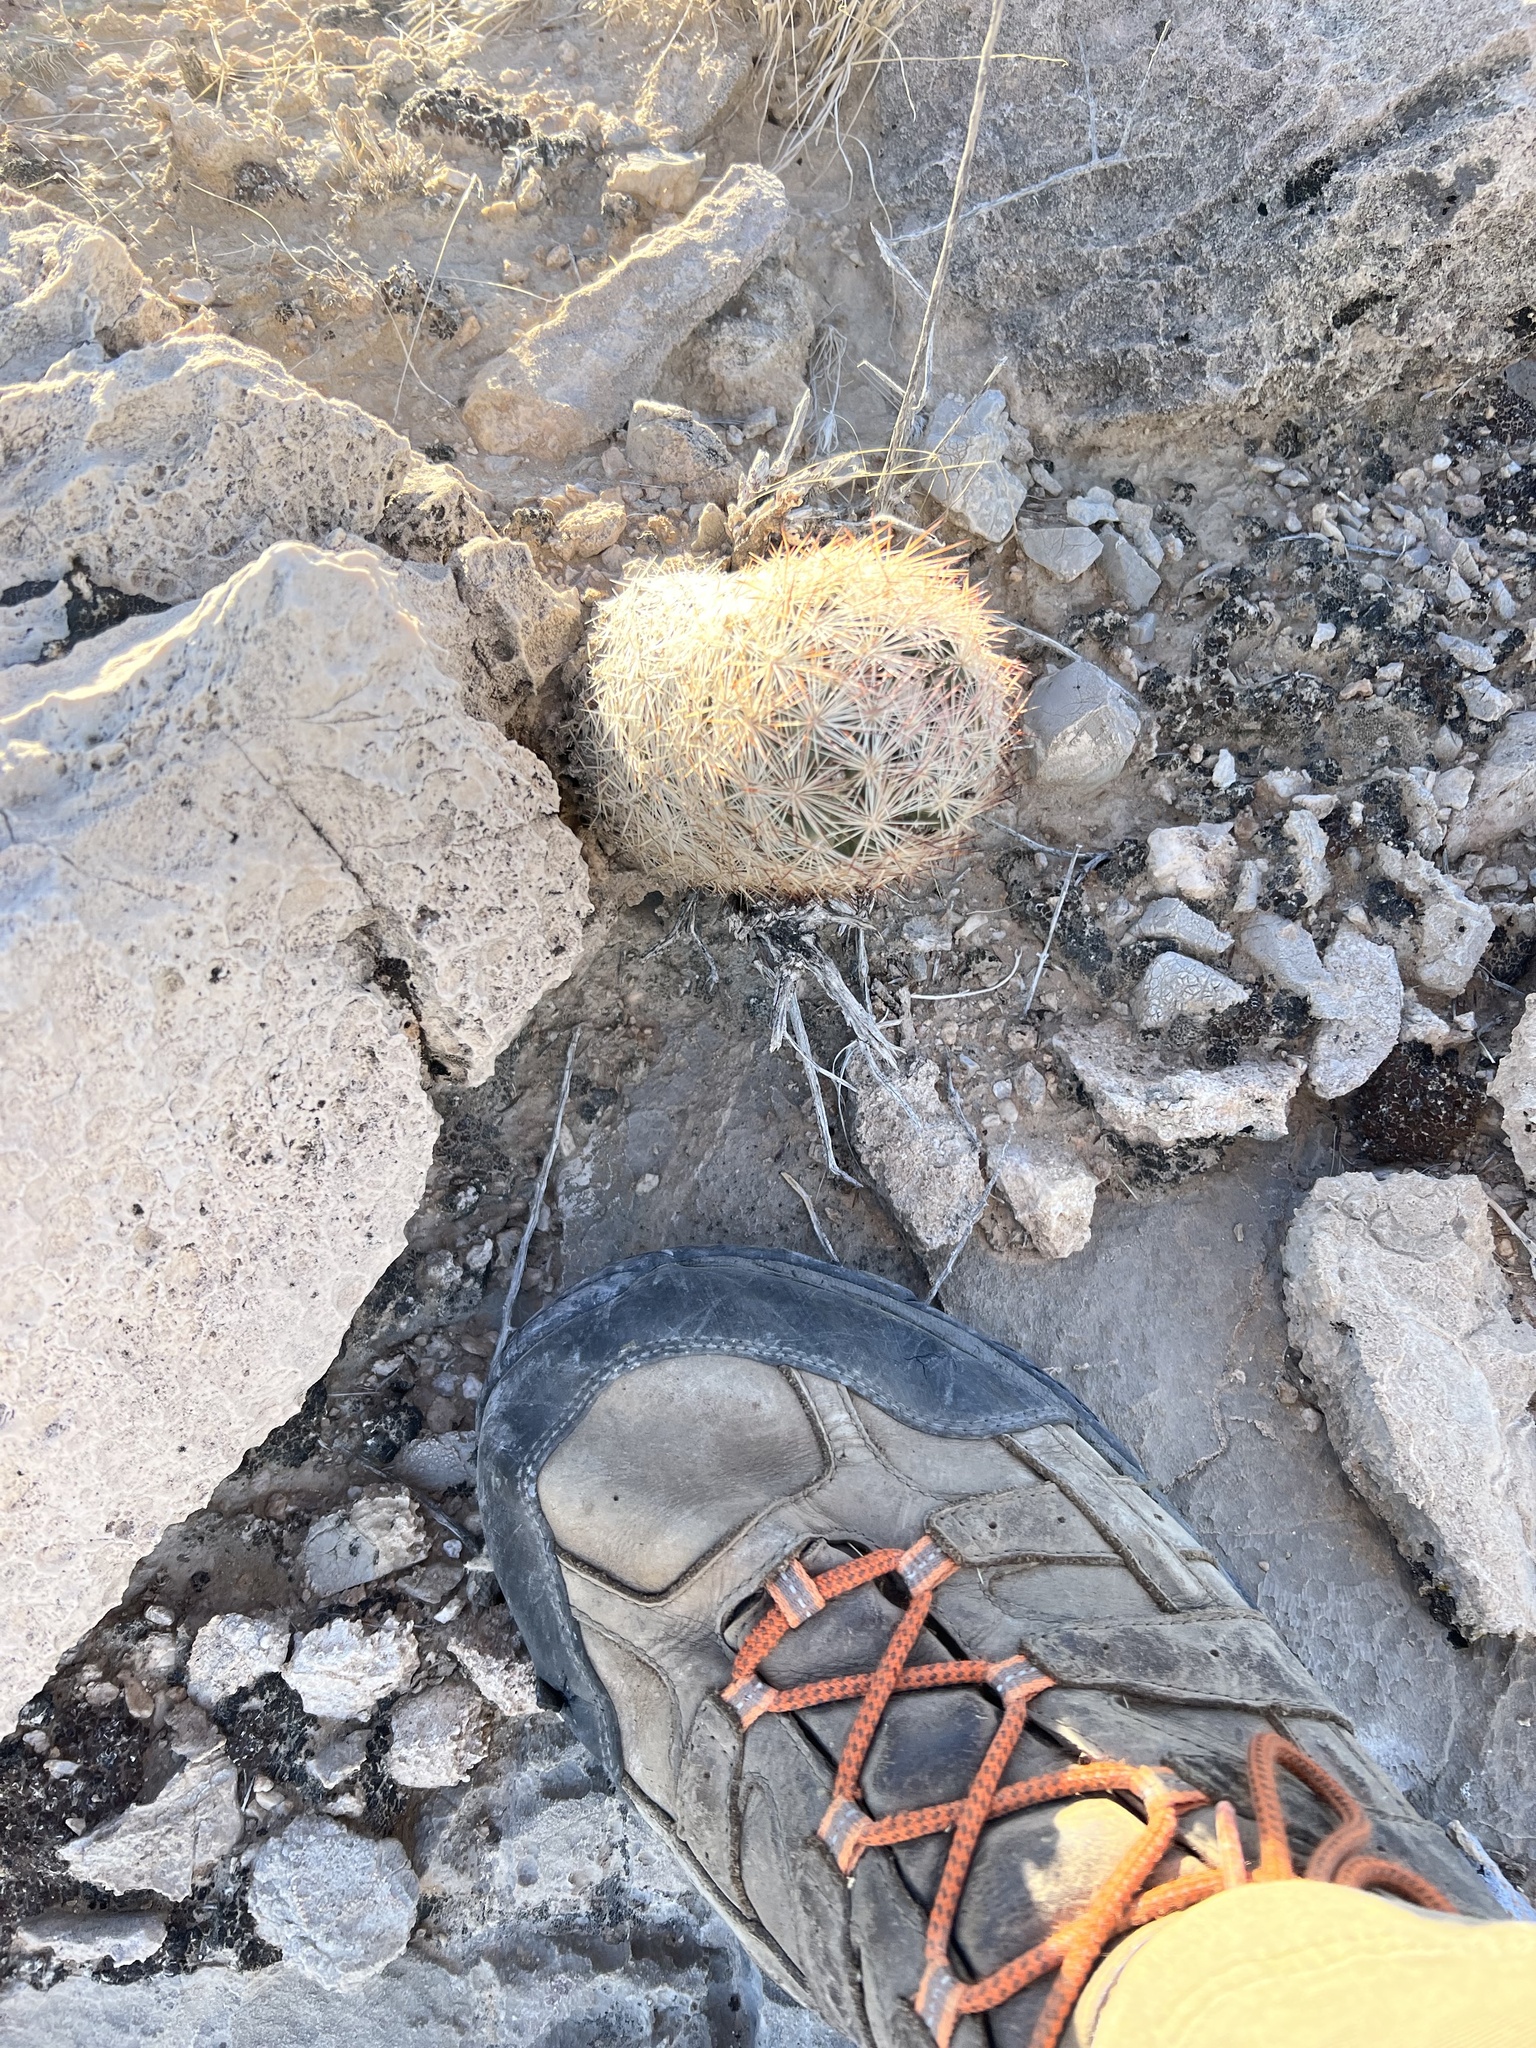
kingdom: Plantae
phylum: Tracheophyta
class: Magnoliopsida
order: Caryophyllales
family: Cactaceae
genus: Pelecyphora
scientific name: Pelecyphora dasyacantha
